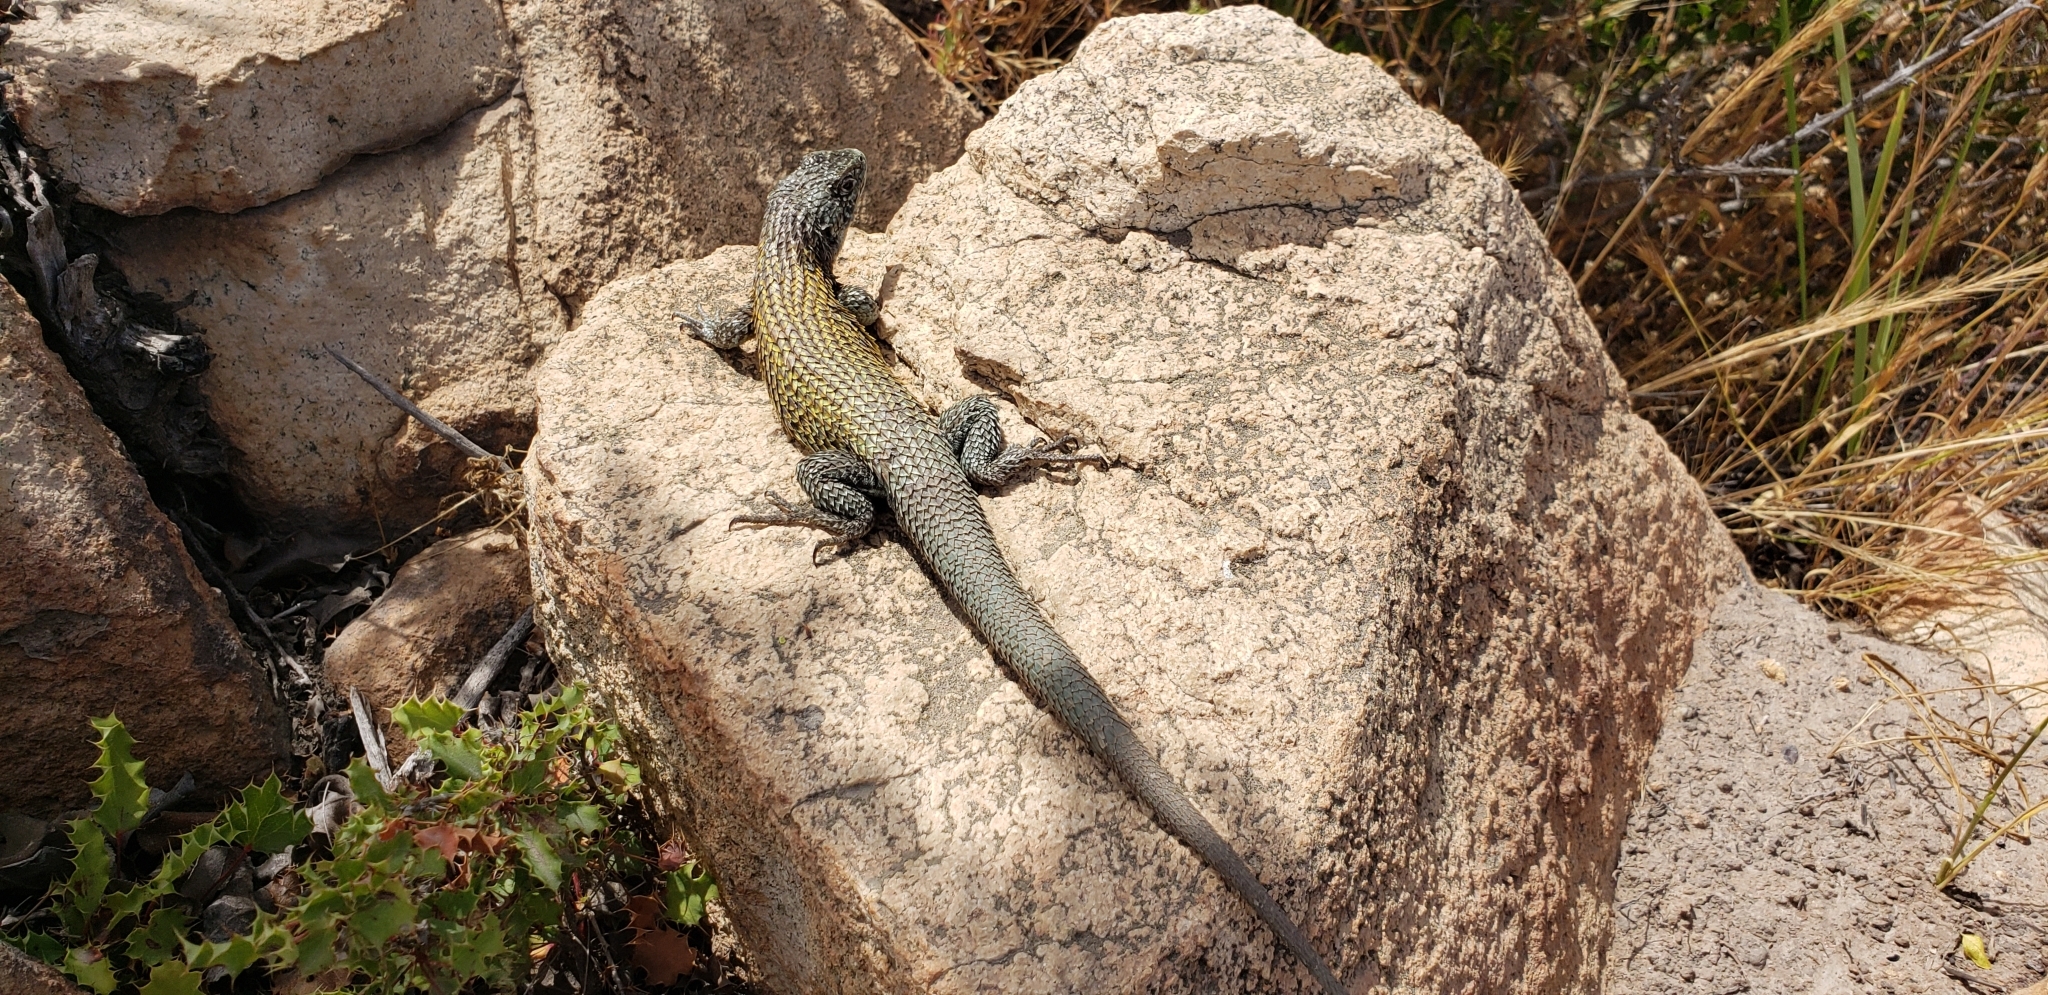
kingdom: Animalia
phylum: Chordata
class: Squamata
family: Liolaemidae
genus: Liolaemus
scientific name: Liolaemus nitidus
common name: Shining tree iguana
